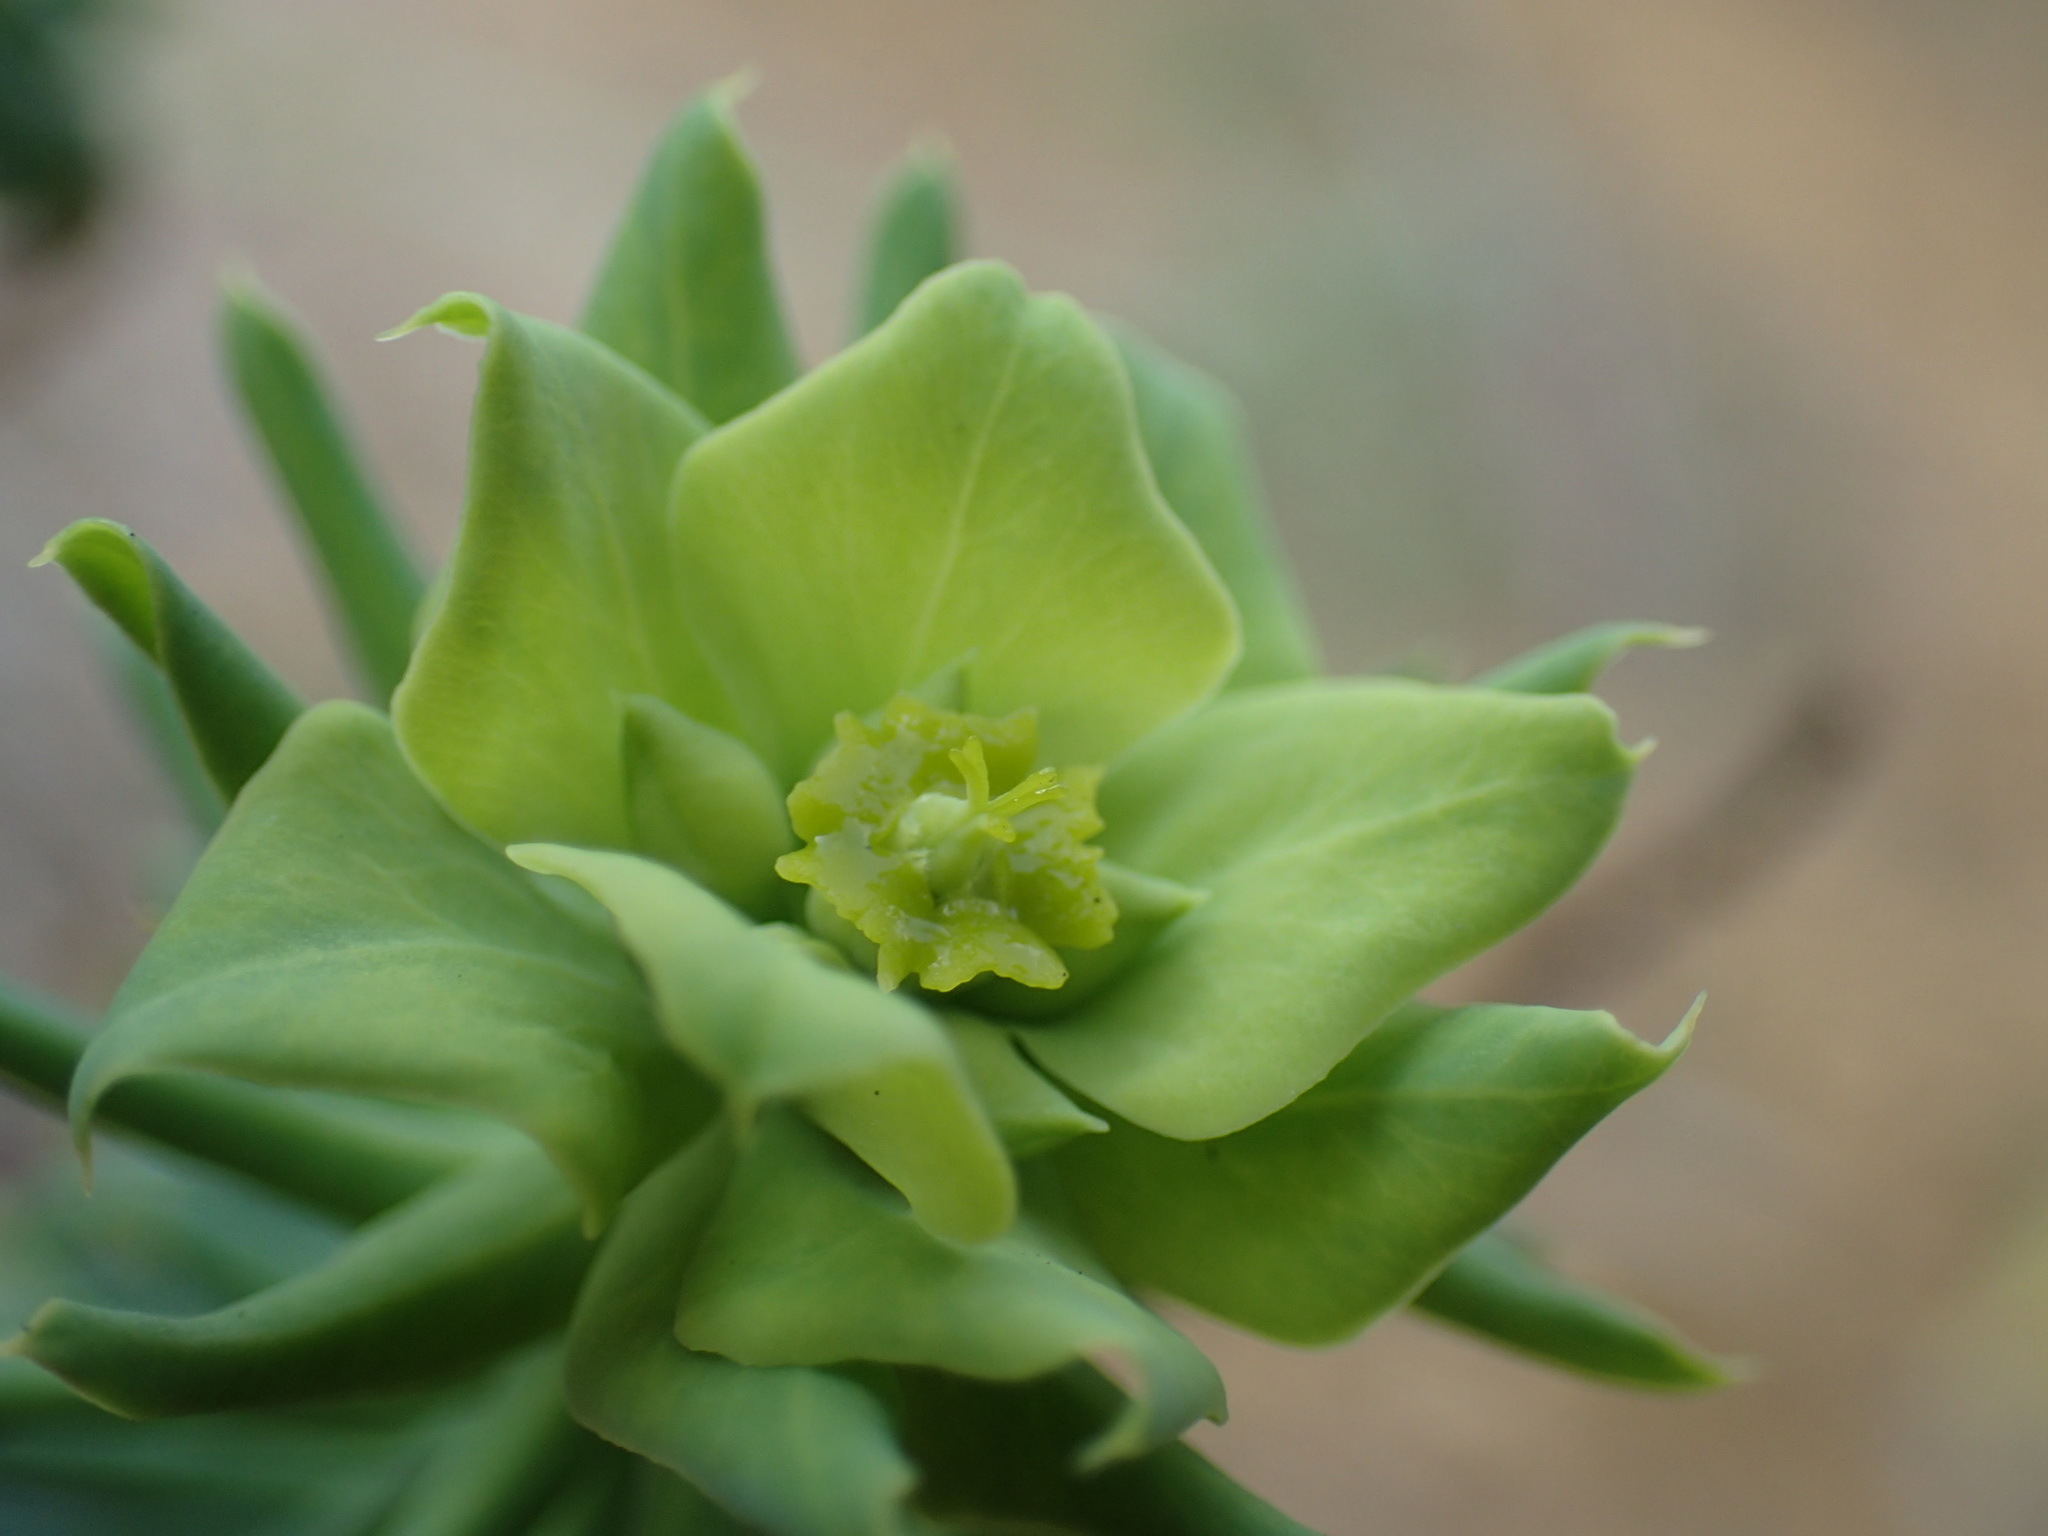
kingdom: Plantae
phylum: Tracheophyta
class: Magnoliopsida
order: Malpighiales
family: Euphorbiaceae
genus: Euphorbia
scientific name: Euphorbia natalensis
